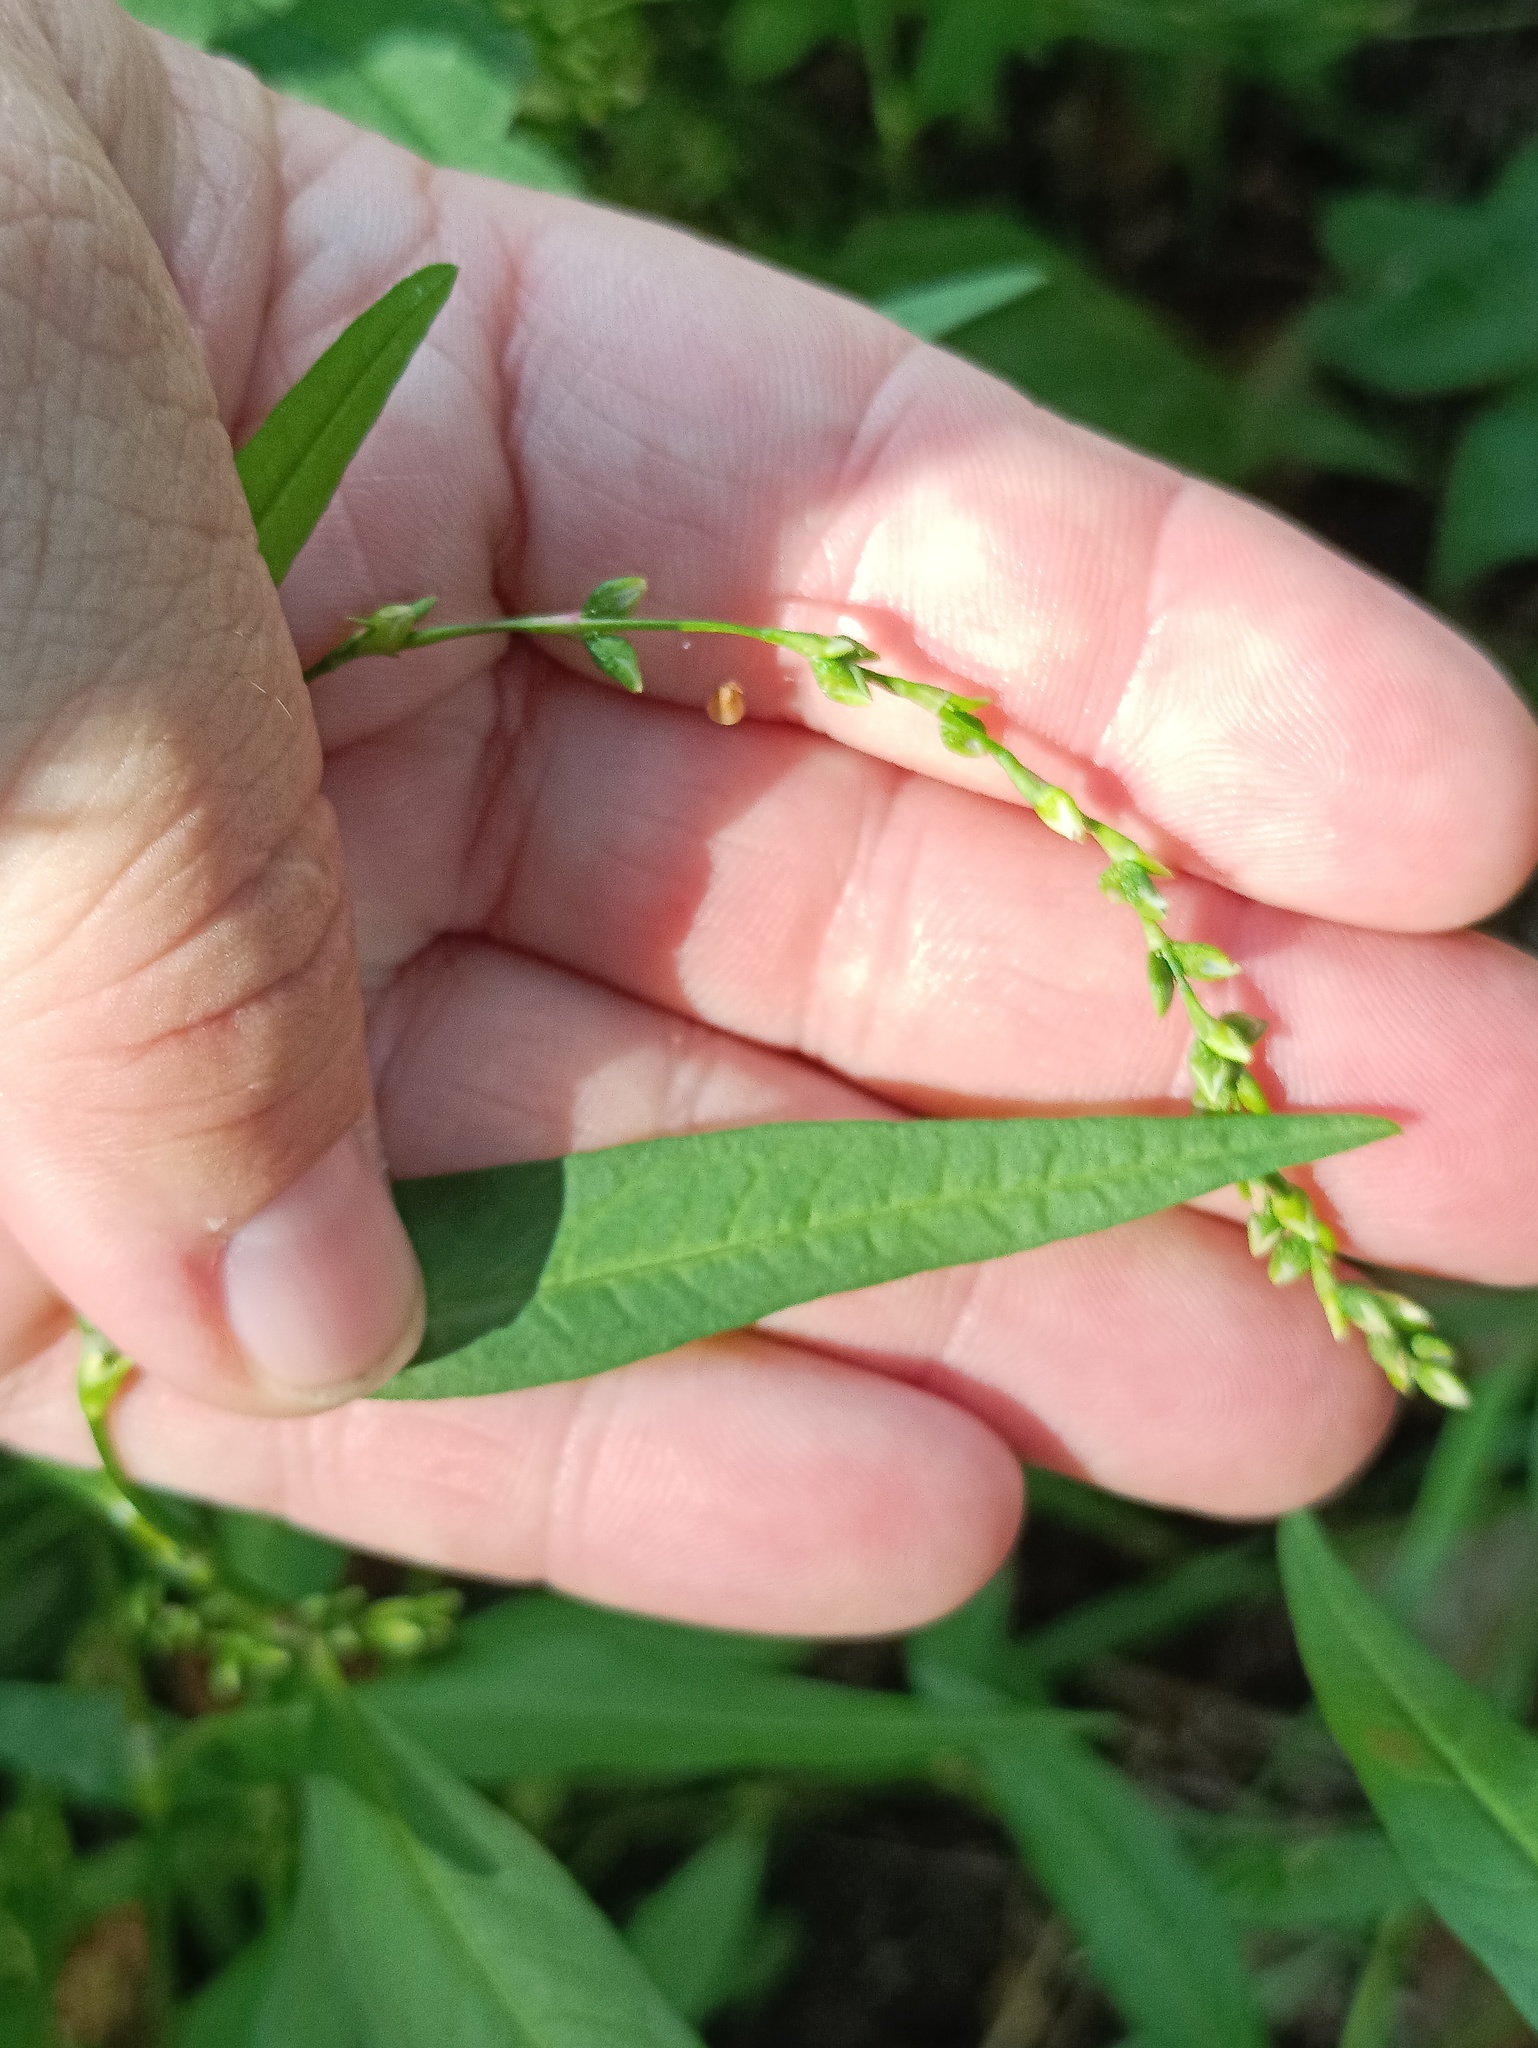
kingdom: Plantae
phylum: Tracheophyta
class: Magnoliopsida
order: Caryophyllales
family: Polygonaceae
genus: Persicaria
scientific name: Persicaria hydropiper
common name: Water-pepper
